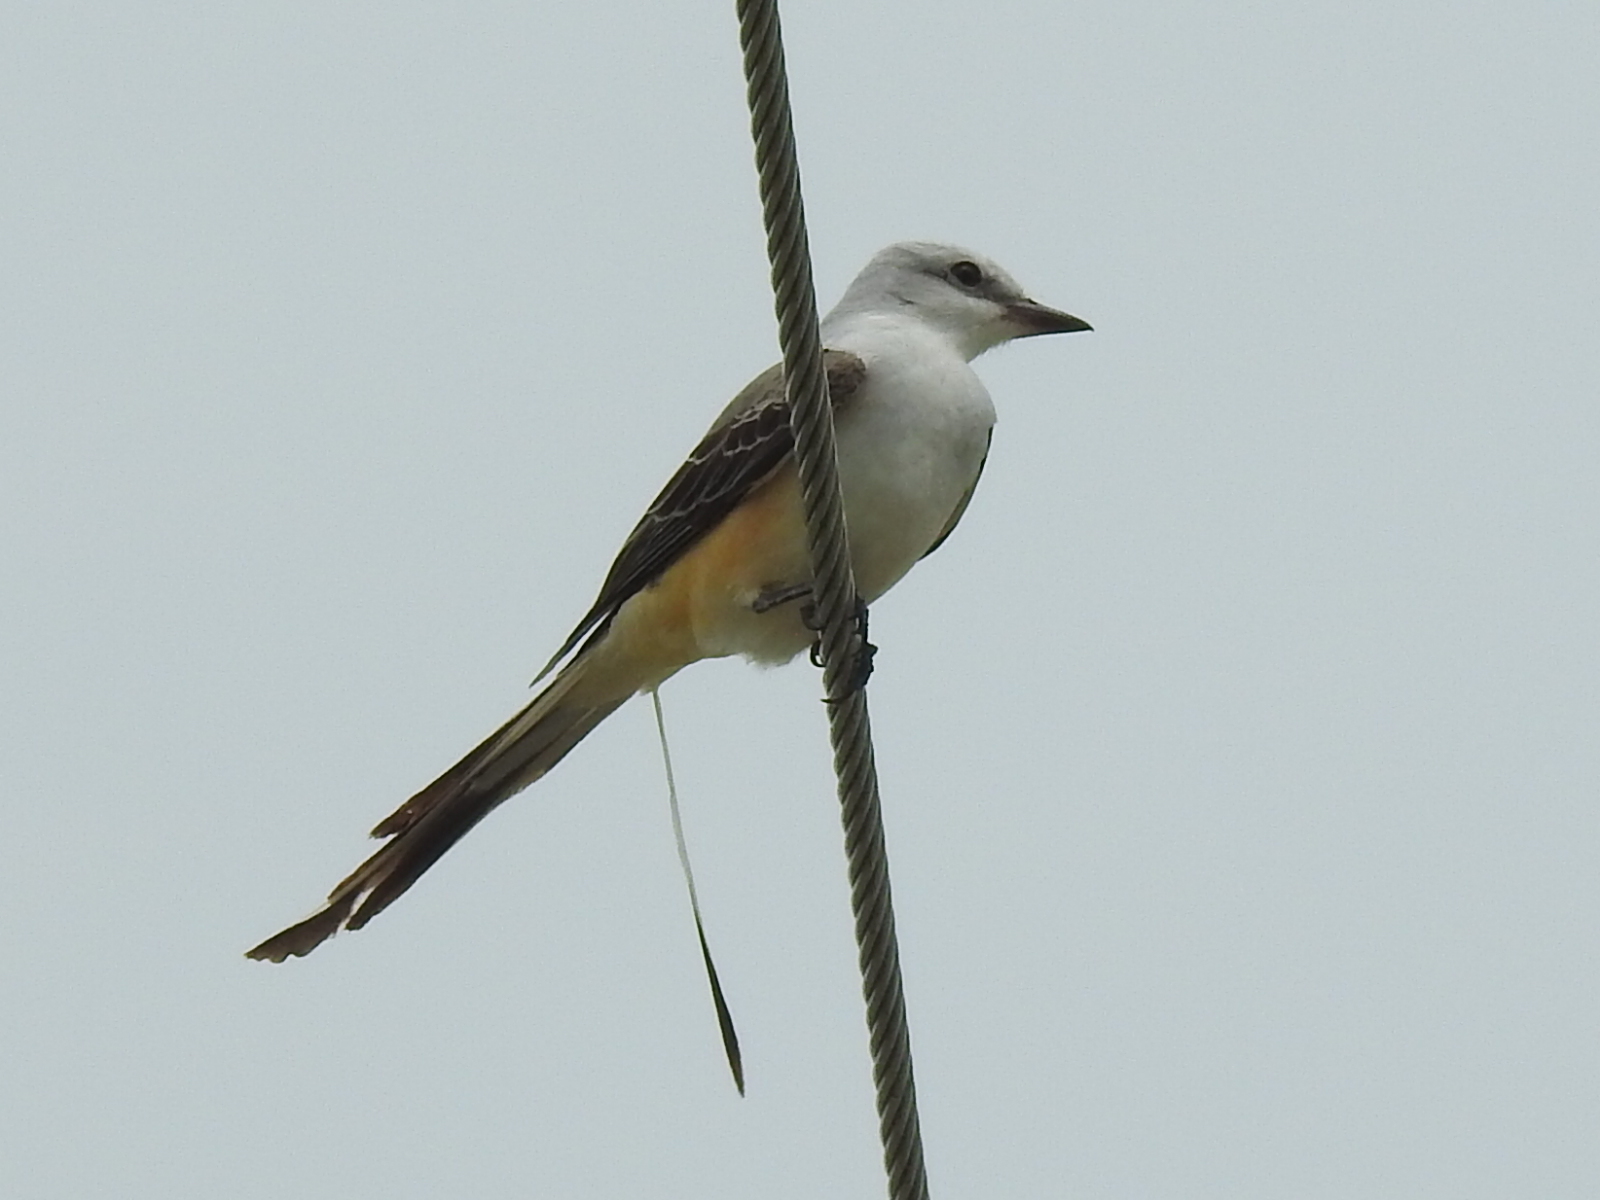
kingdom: Animalia
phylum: Chordata
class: Aves
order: Passeriformes
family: Tyrannidae
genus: Tyrannus
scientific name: Tyrannus forficatus
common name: Scissor-tailed flycatcher
